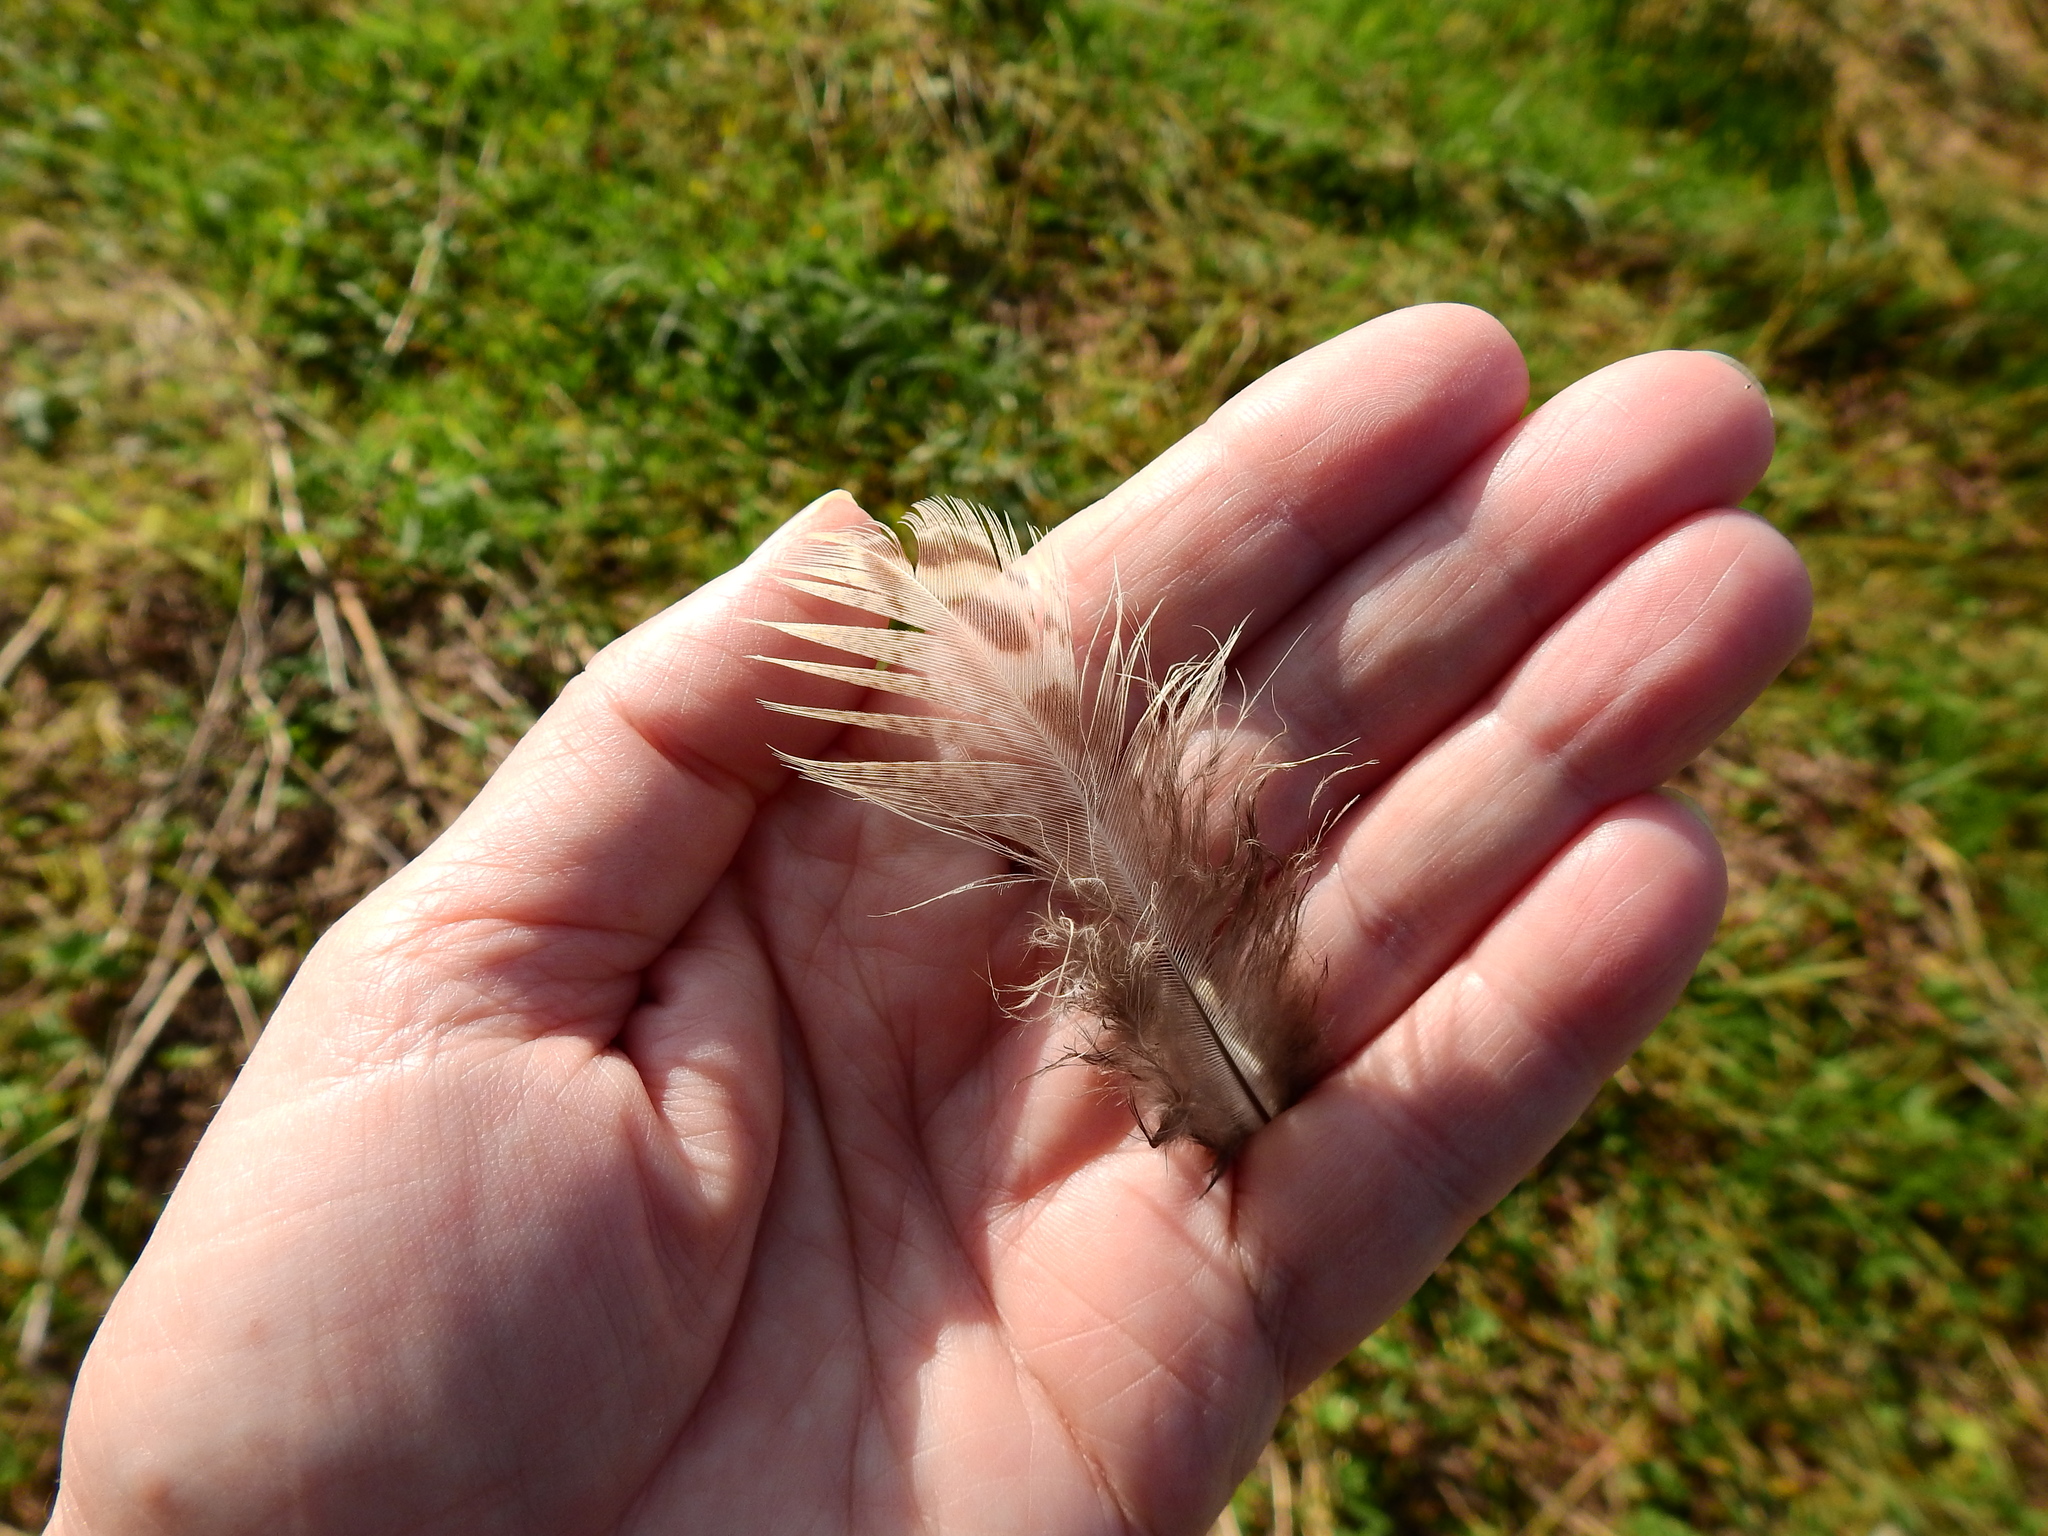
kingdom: Animalia
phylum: Chordata
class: Aves
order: Galliformes
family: Phasianidae
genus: Phasianus
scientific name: Phasianus colchicus
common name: Common pheasant
